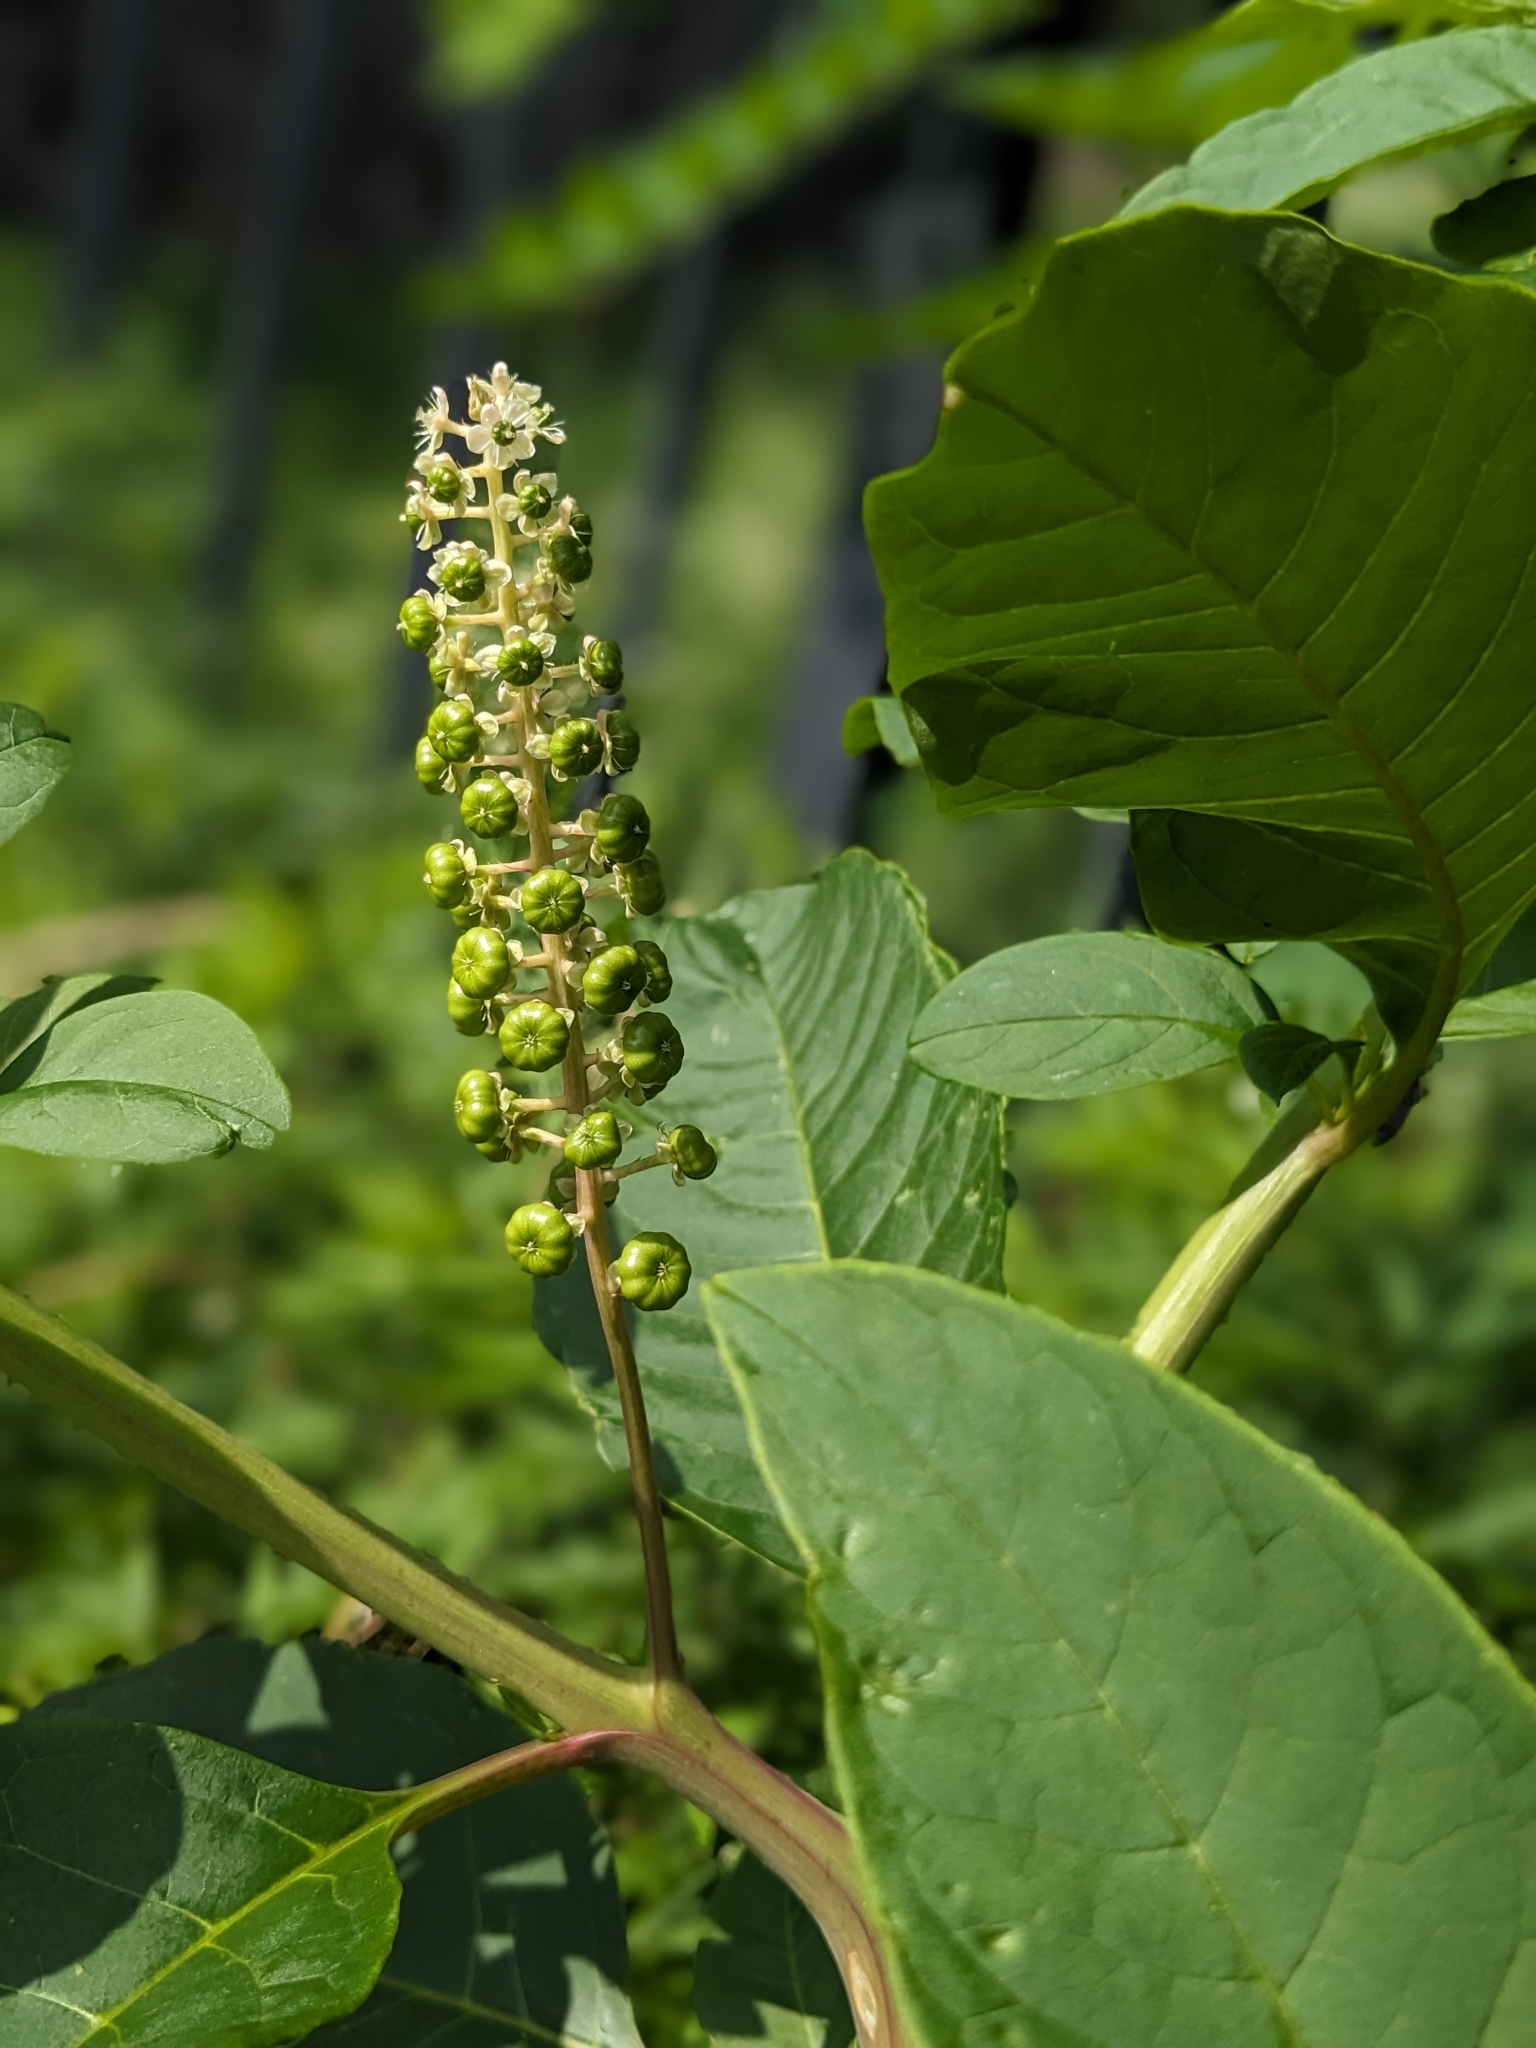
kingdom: Plantae
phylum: Tracheophyta
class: Magnoliopsida
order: Caryophyllales
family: Phytolaccaceae
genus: Phytolacca
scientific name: Phytolacca americana
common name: American pokeweed
